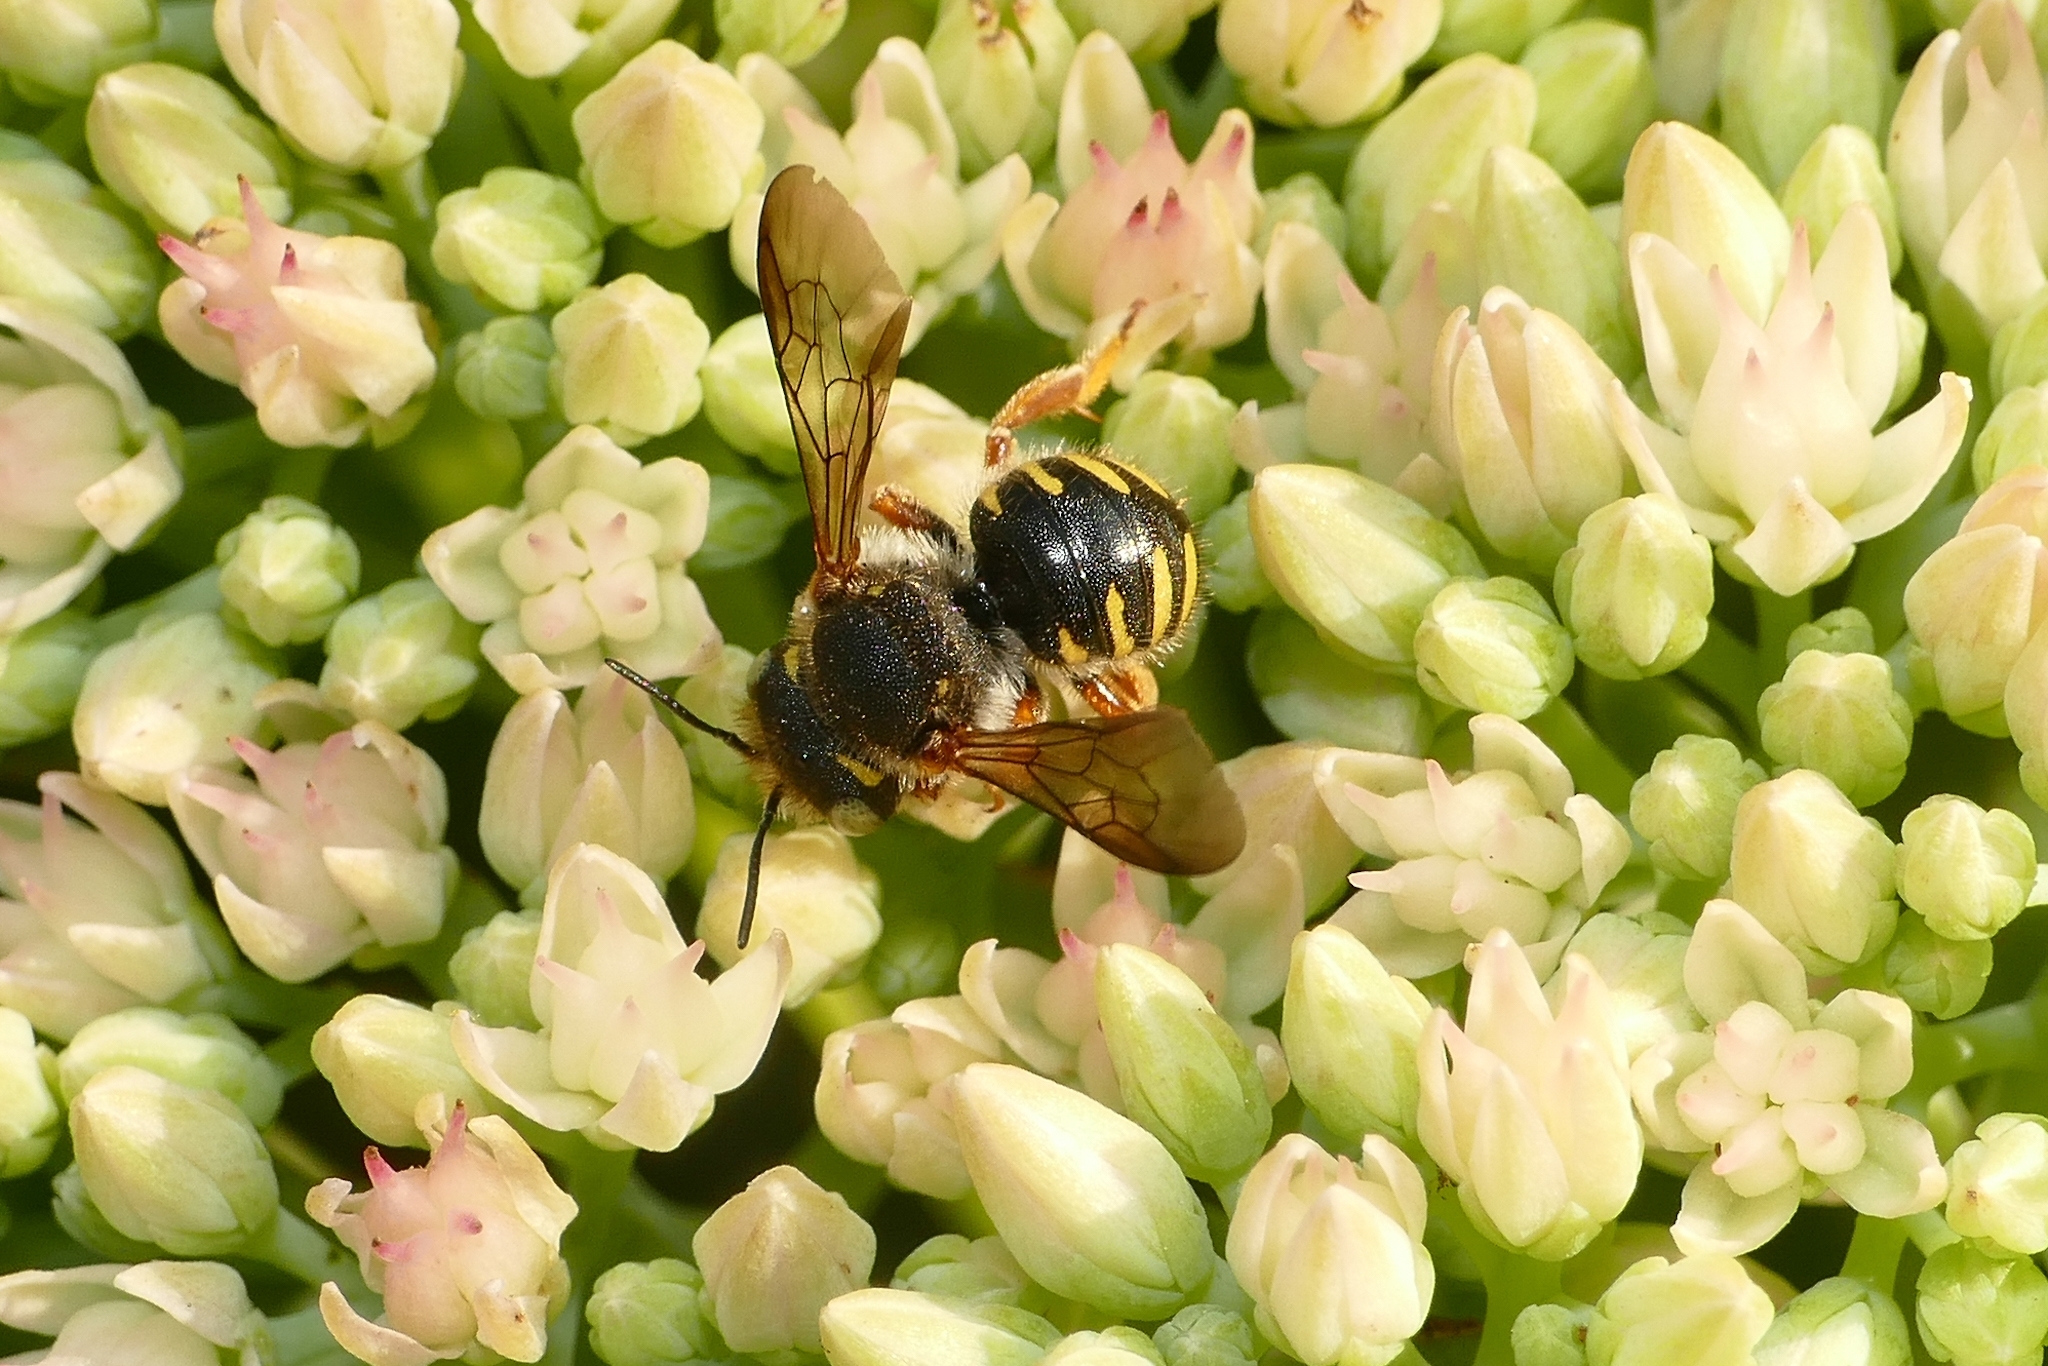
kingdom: Animalia
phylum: Arthropoda
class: Insecta
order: Hymenoptera
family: Megachilidae
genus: Anthidium
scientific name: Anthidium oblongatum
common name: Oblong wool carder bee
